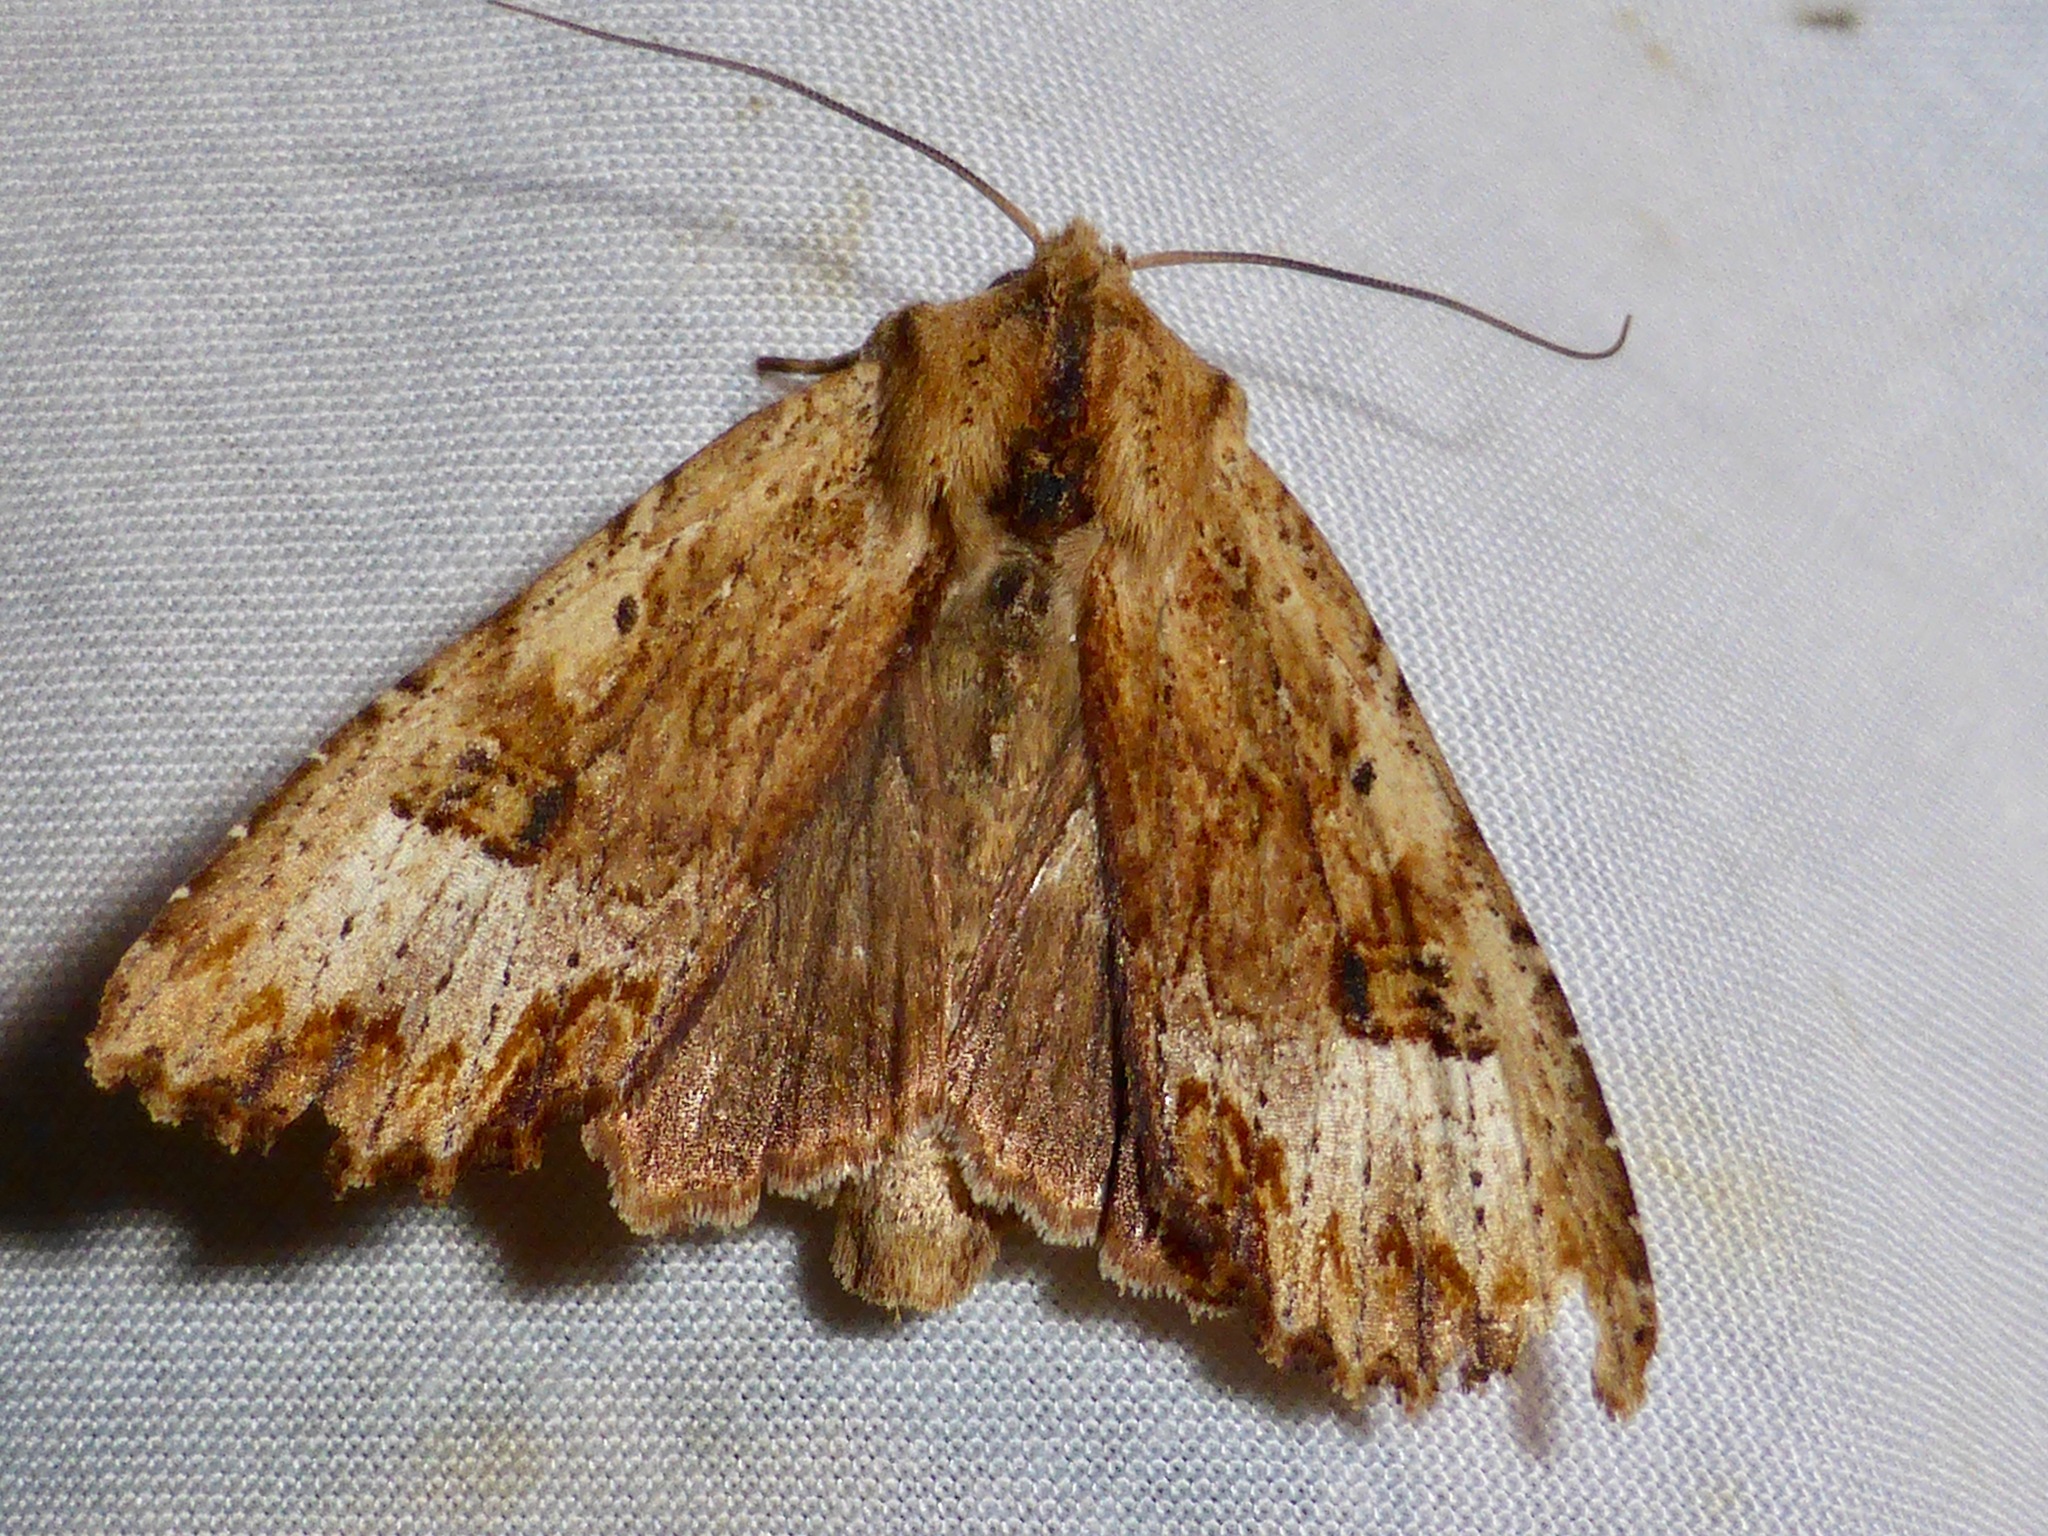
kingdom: Animalia
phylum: Arthropoda
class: Insecta
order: Lepidoptera
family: Noctuidae
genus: Ichneutica
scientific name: Ichneutica
